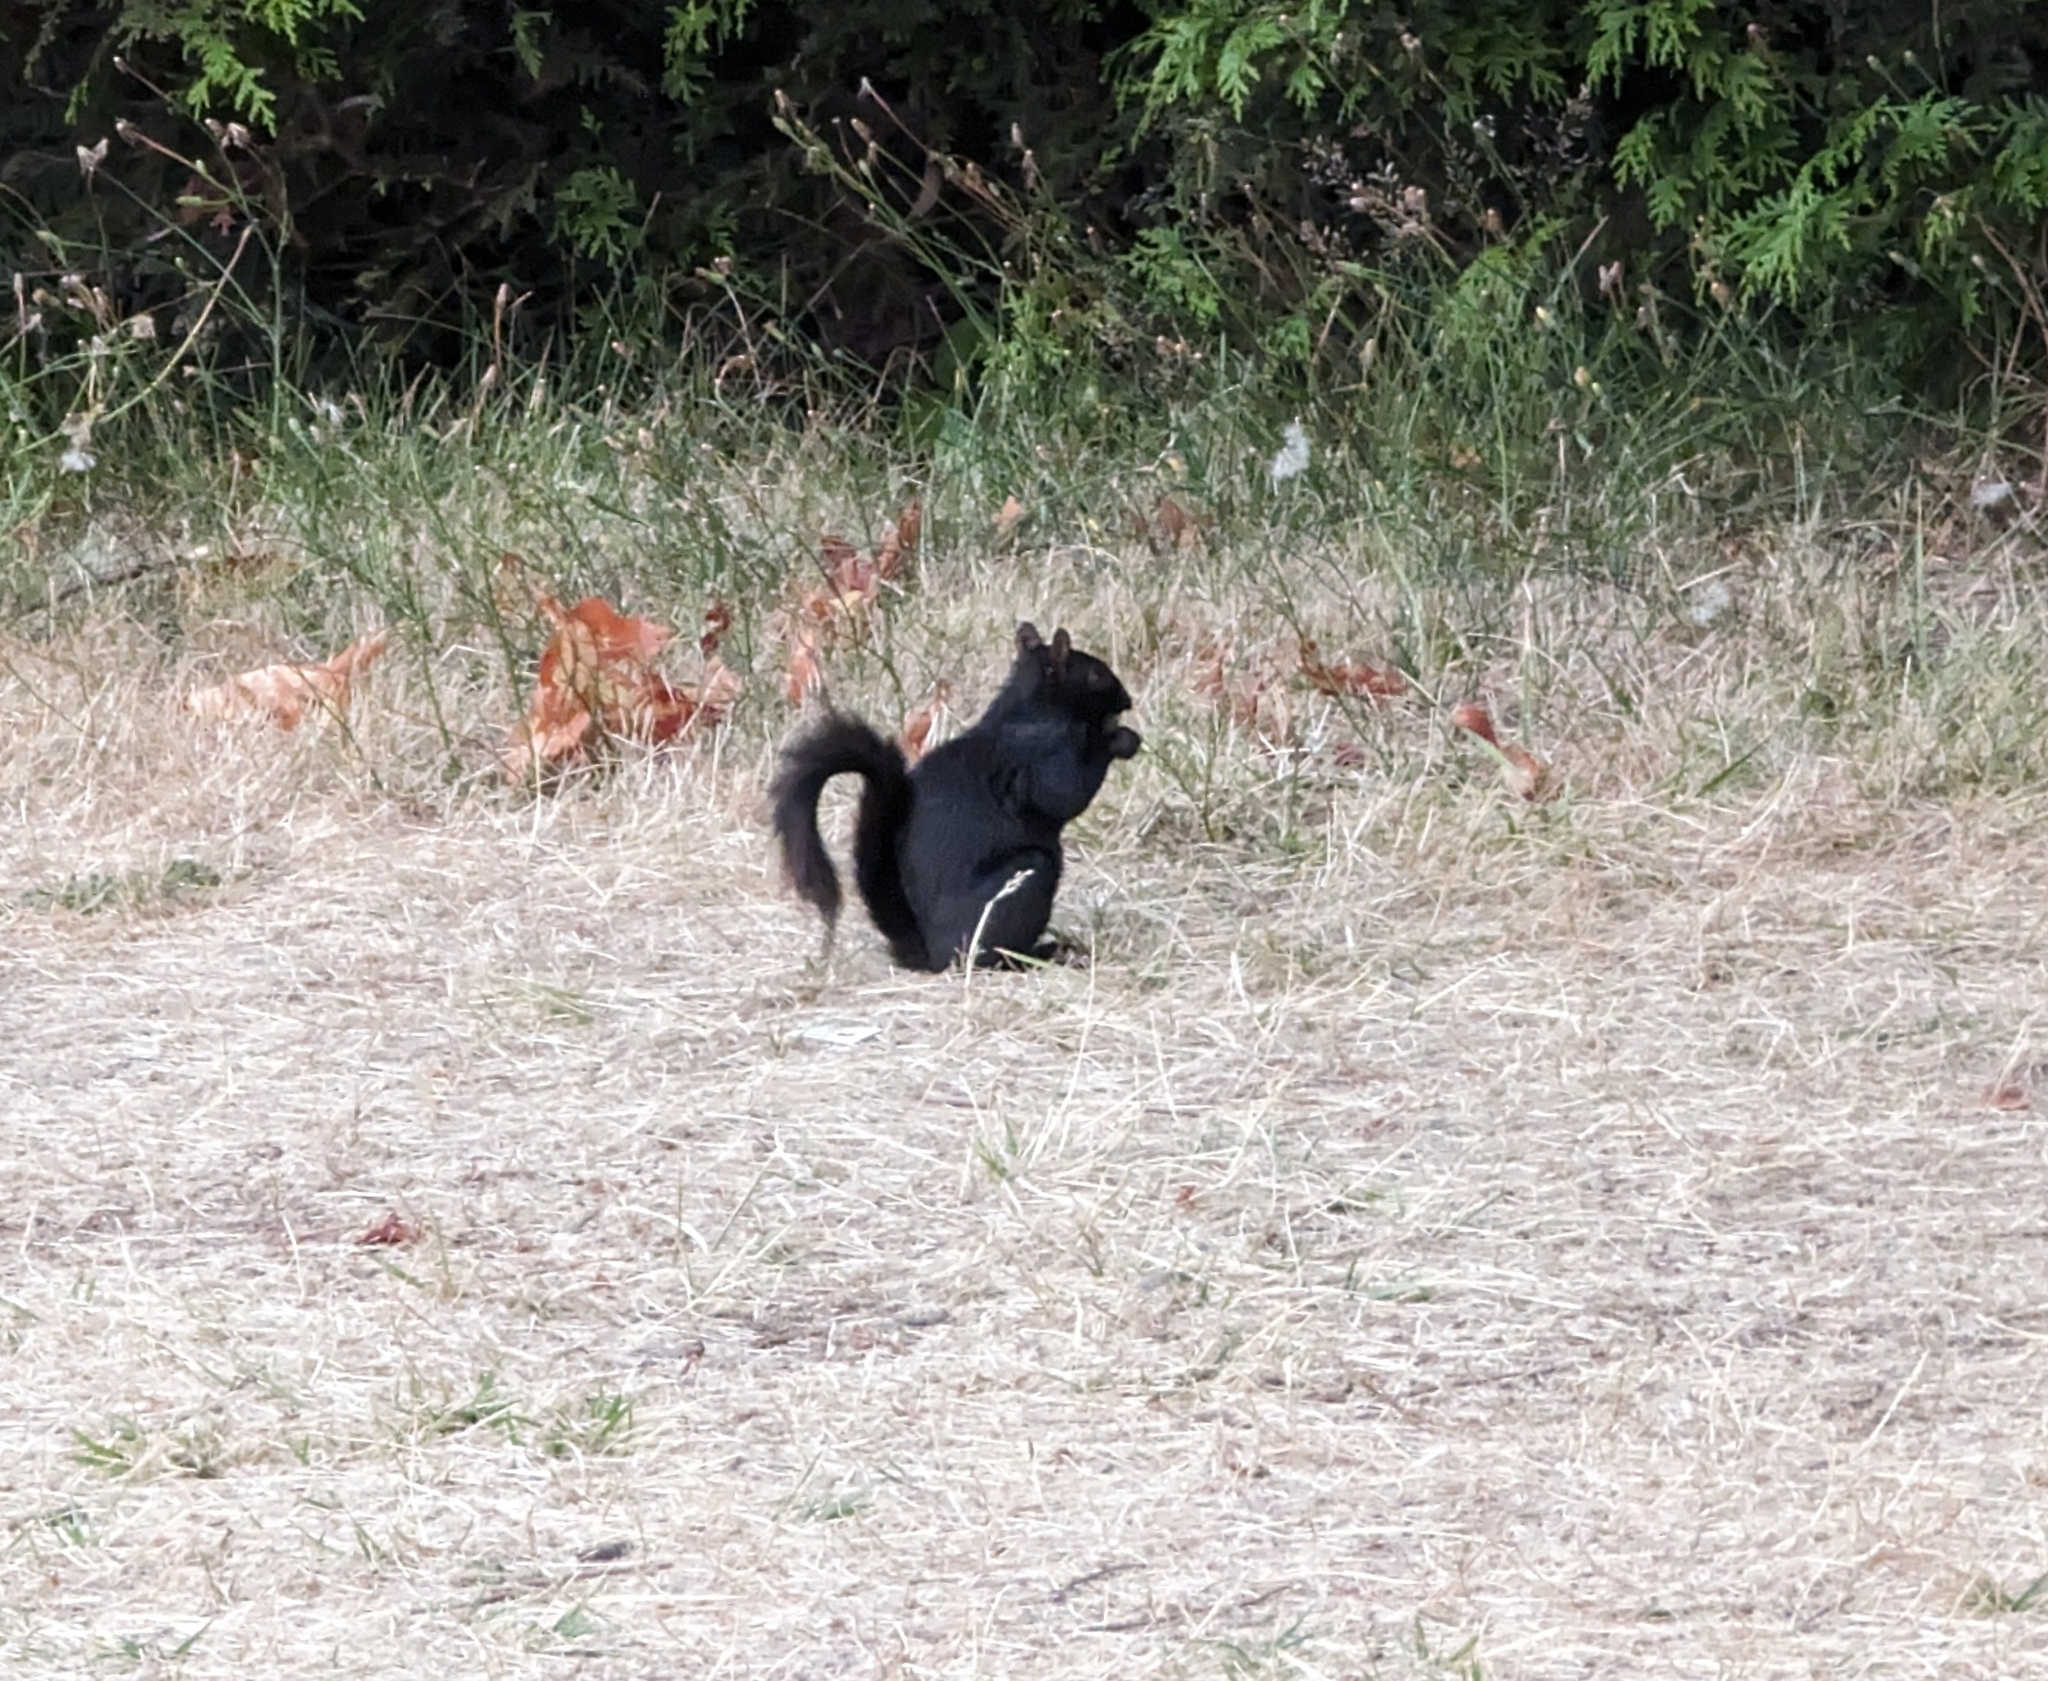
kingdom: Animalia
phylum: Chordata
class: Mammalia
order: Rodentia
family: Sciuridae
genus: Sciurus
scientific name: Sciurus carolinensis
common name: Eastern gray squirrel
